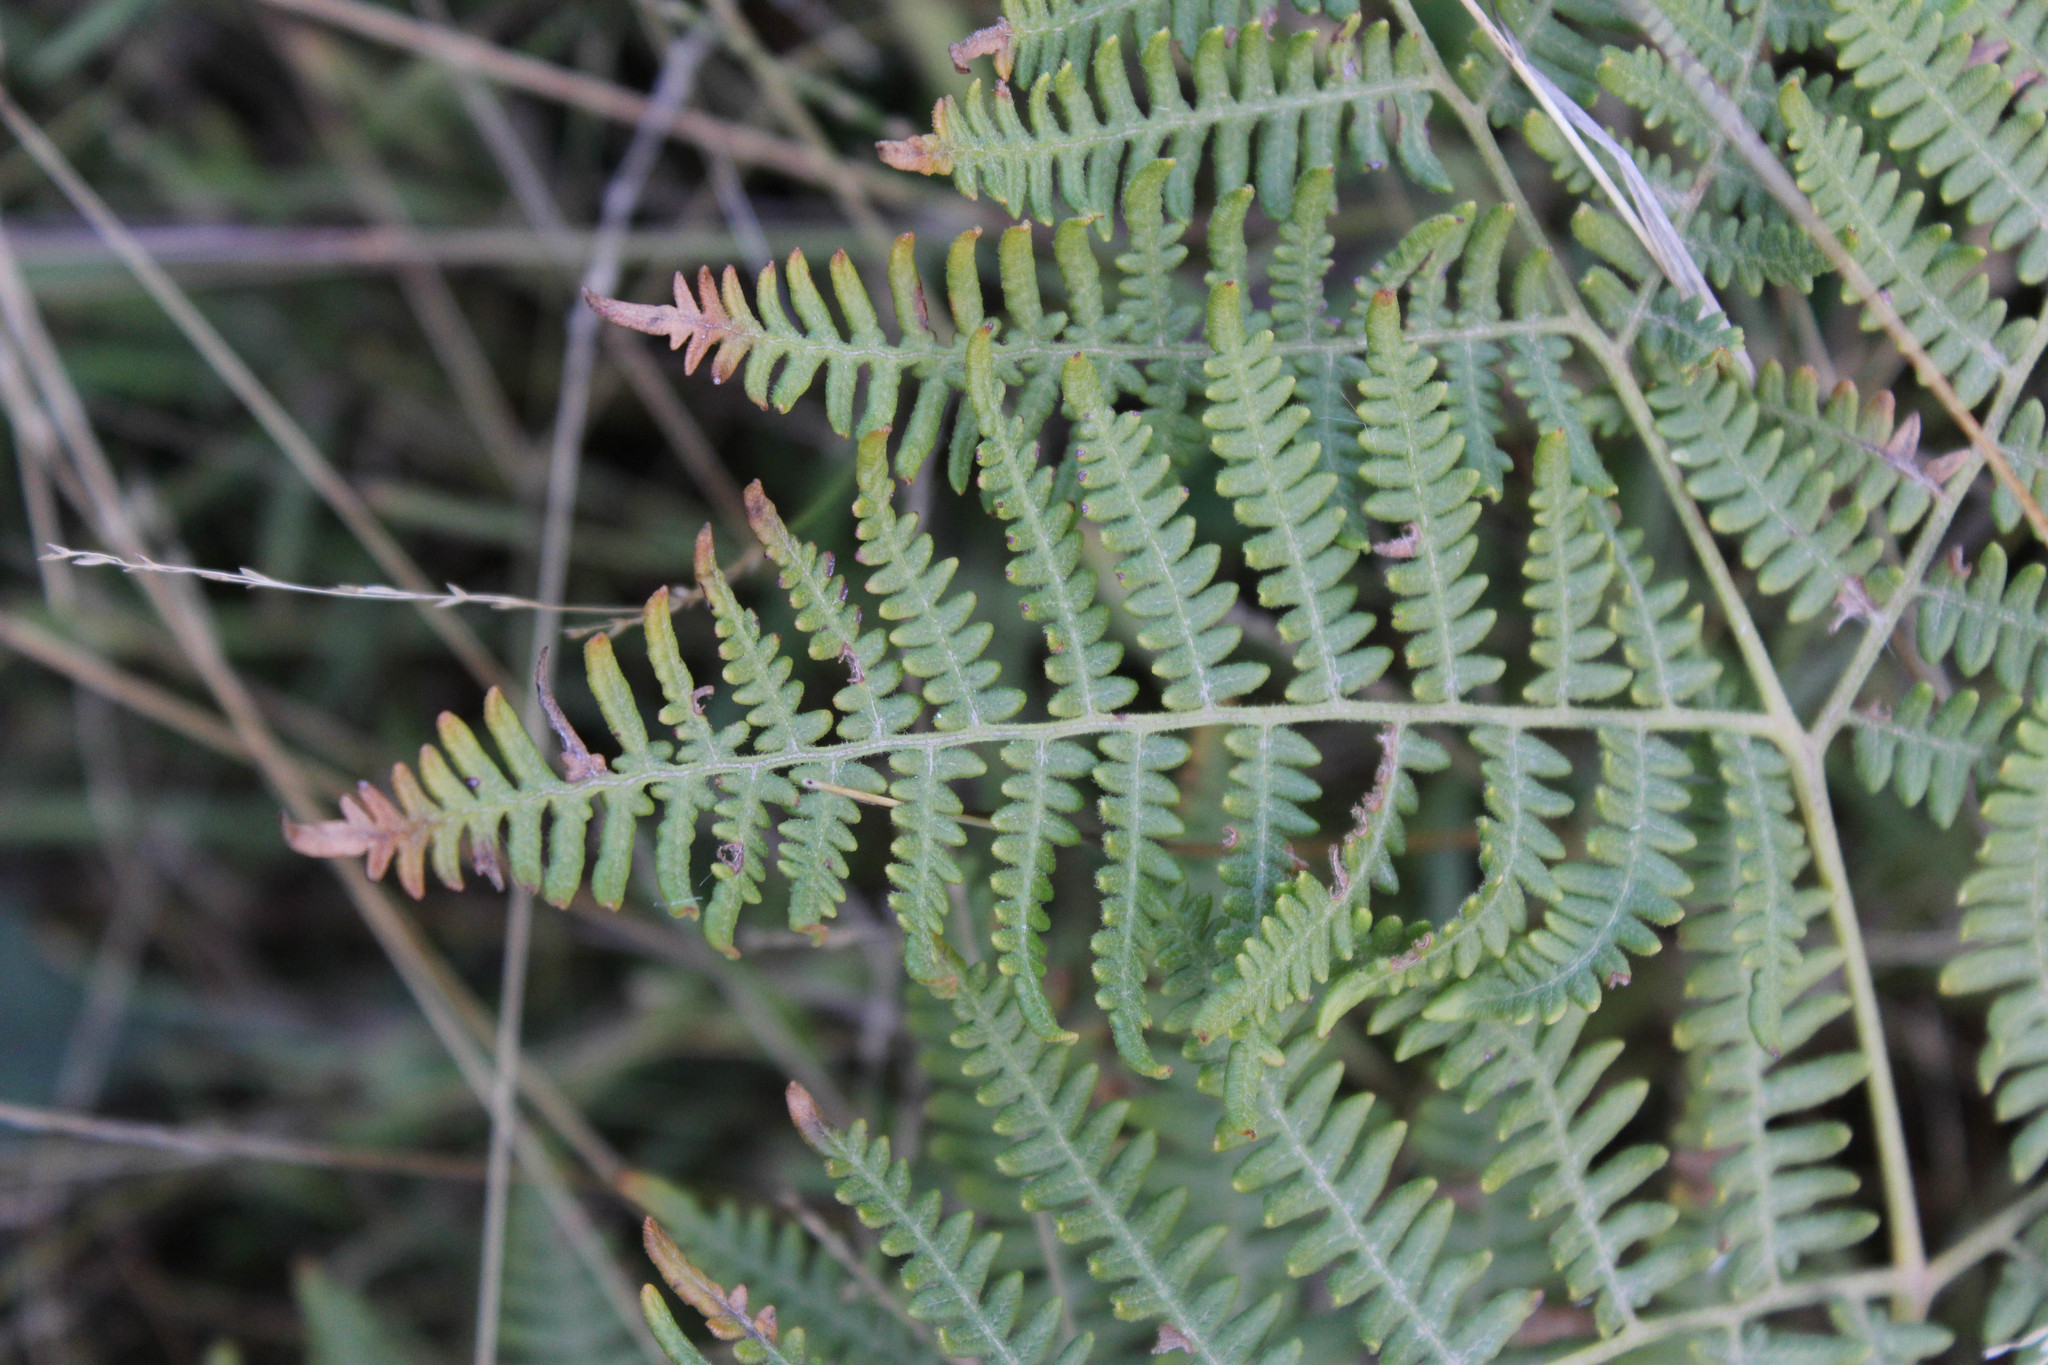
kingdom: Plantae
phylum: Tracheophyta
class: Polypodiopsida
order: Polypodiales
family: Dennstaedtiaceae
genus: Pteridium
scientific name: Pteridium aquilinum
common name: Bracken
